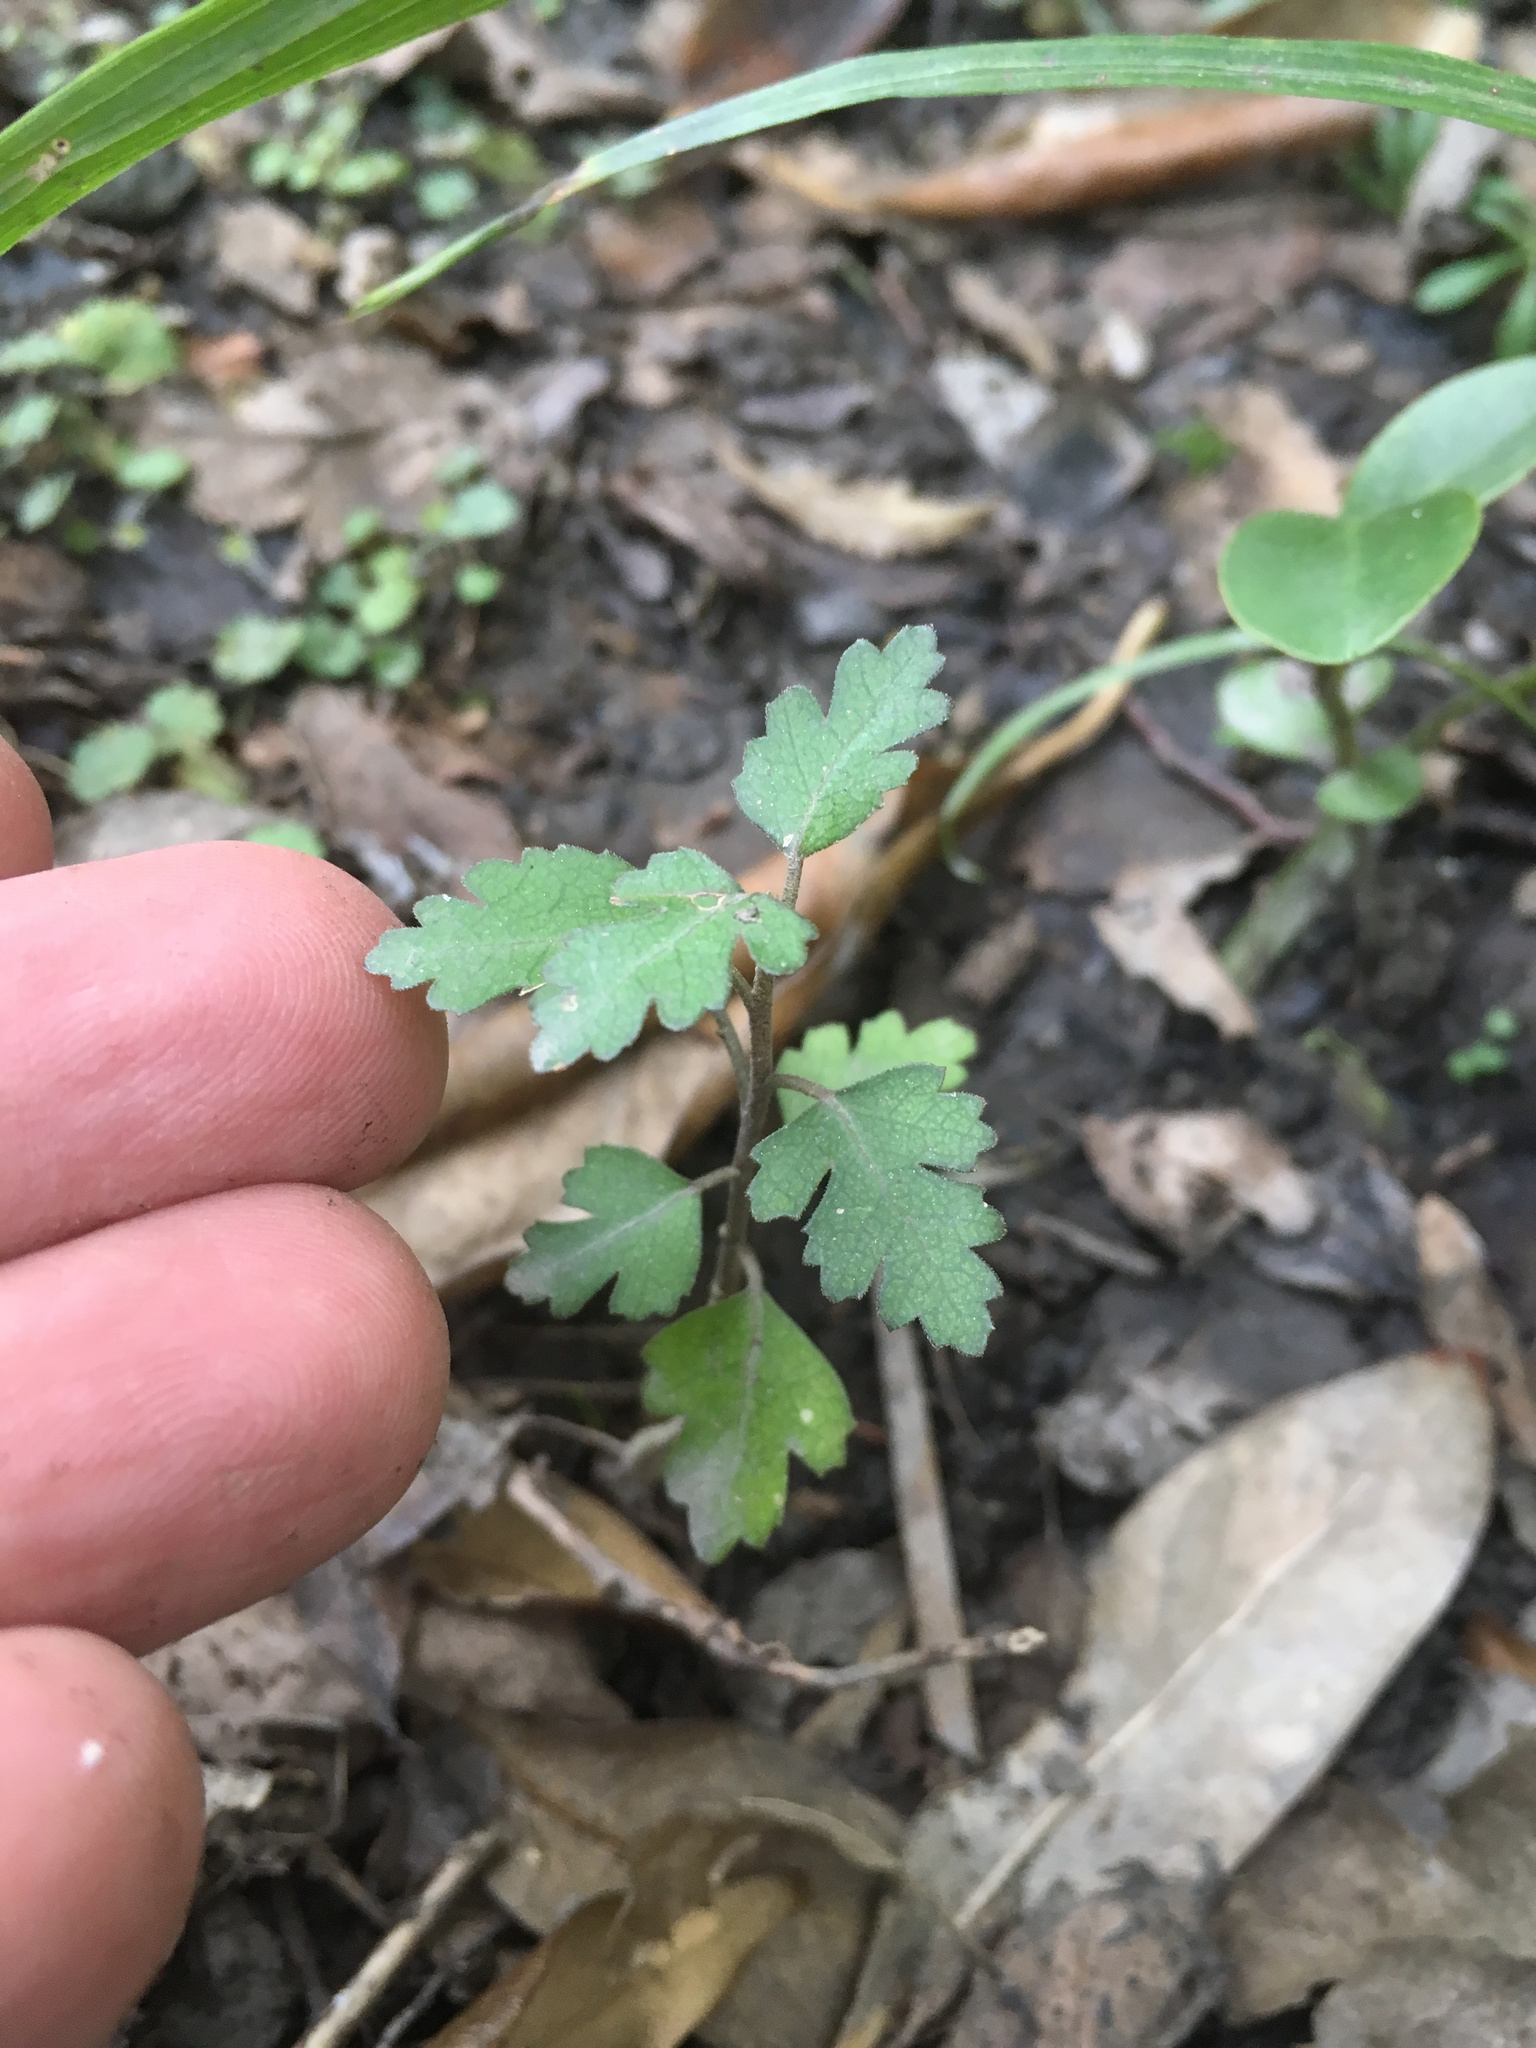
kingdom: Plantae
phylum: Tracheophyta
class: Magnoliopsida
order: Malvales
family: Malvaceae
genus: Plagianthus
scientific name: Plagianthus regius
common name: Manatu
